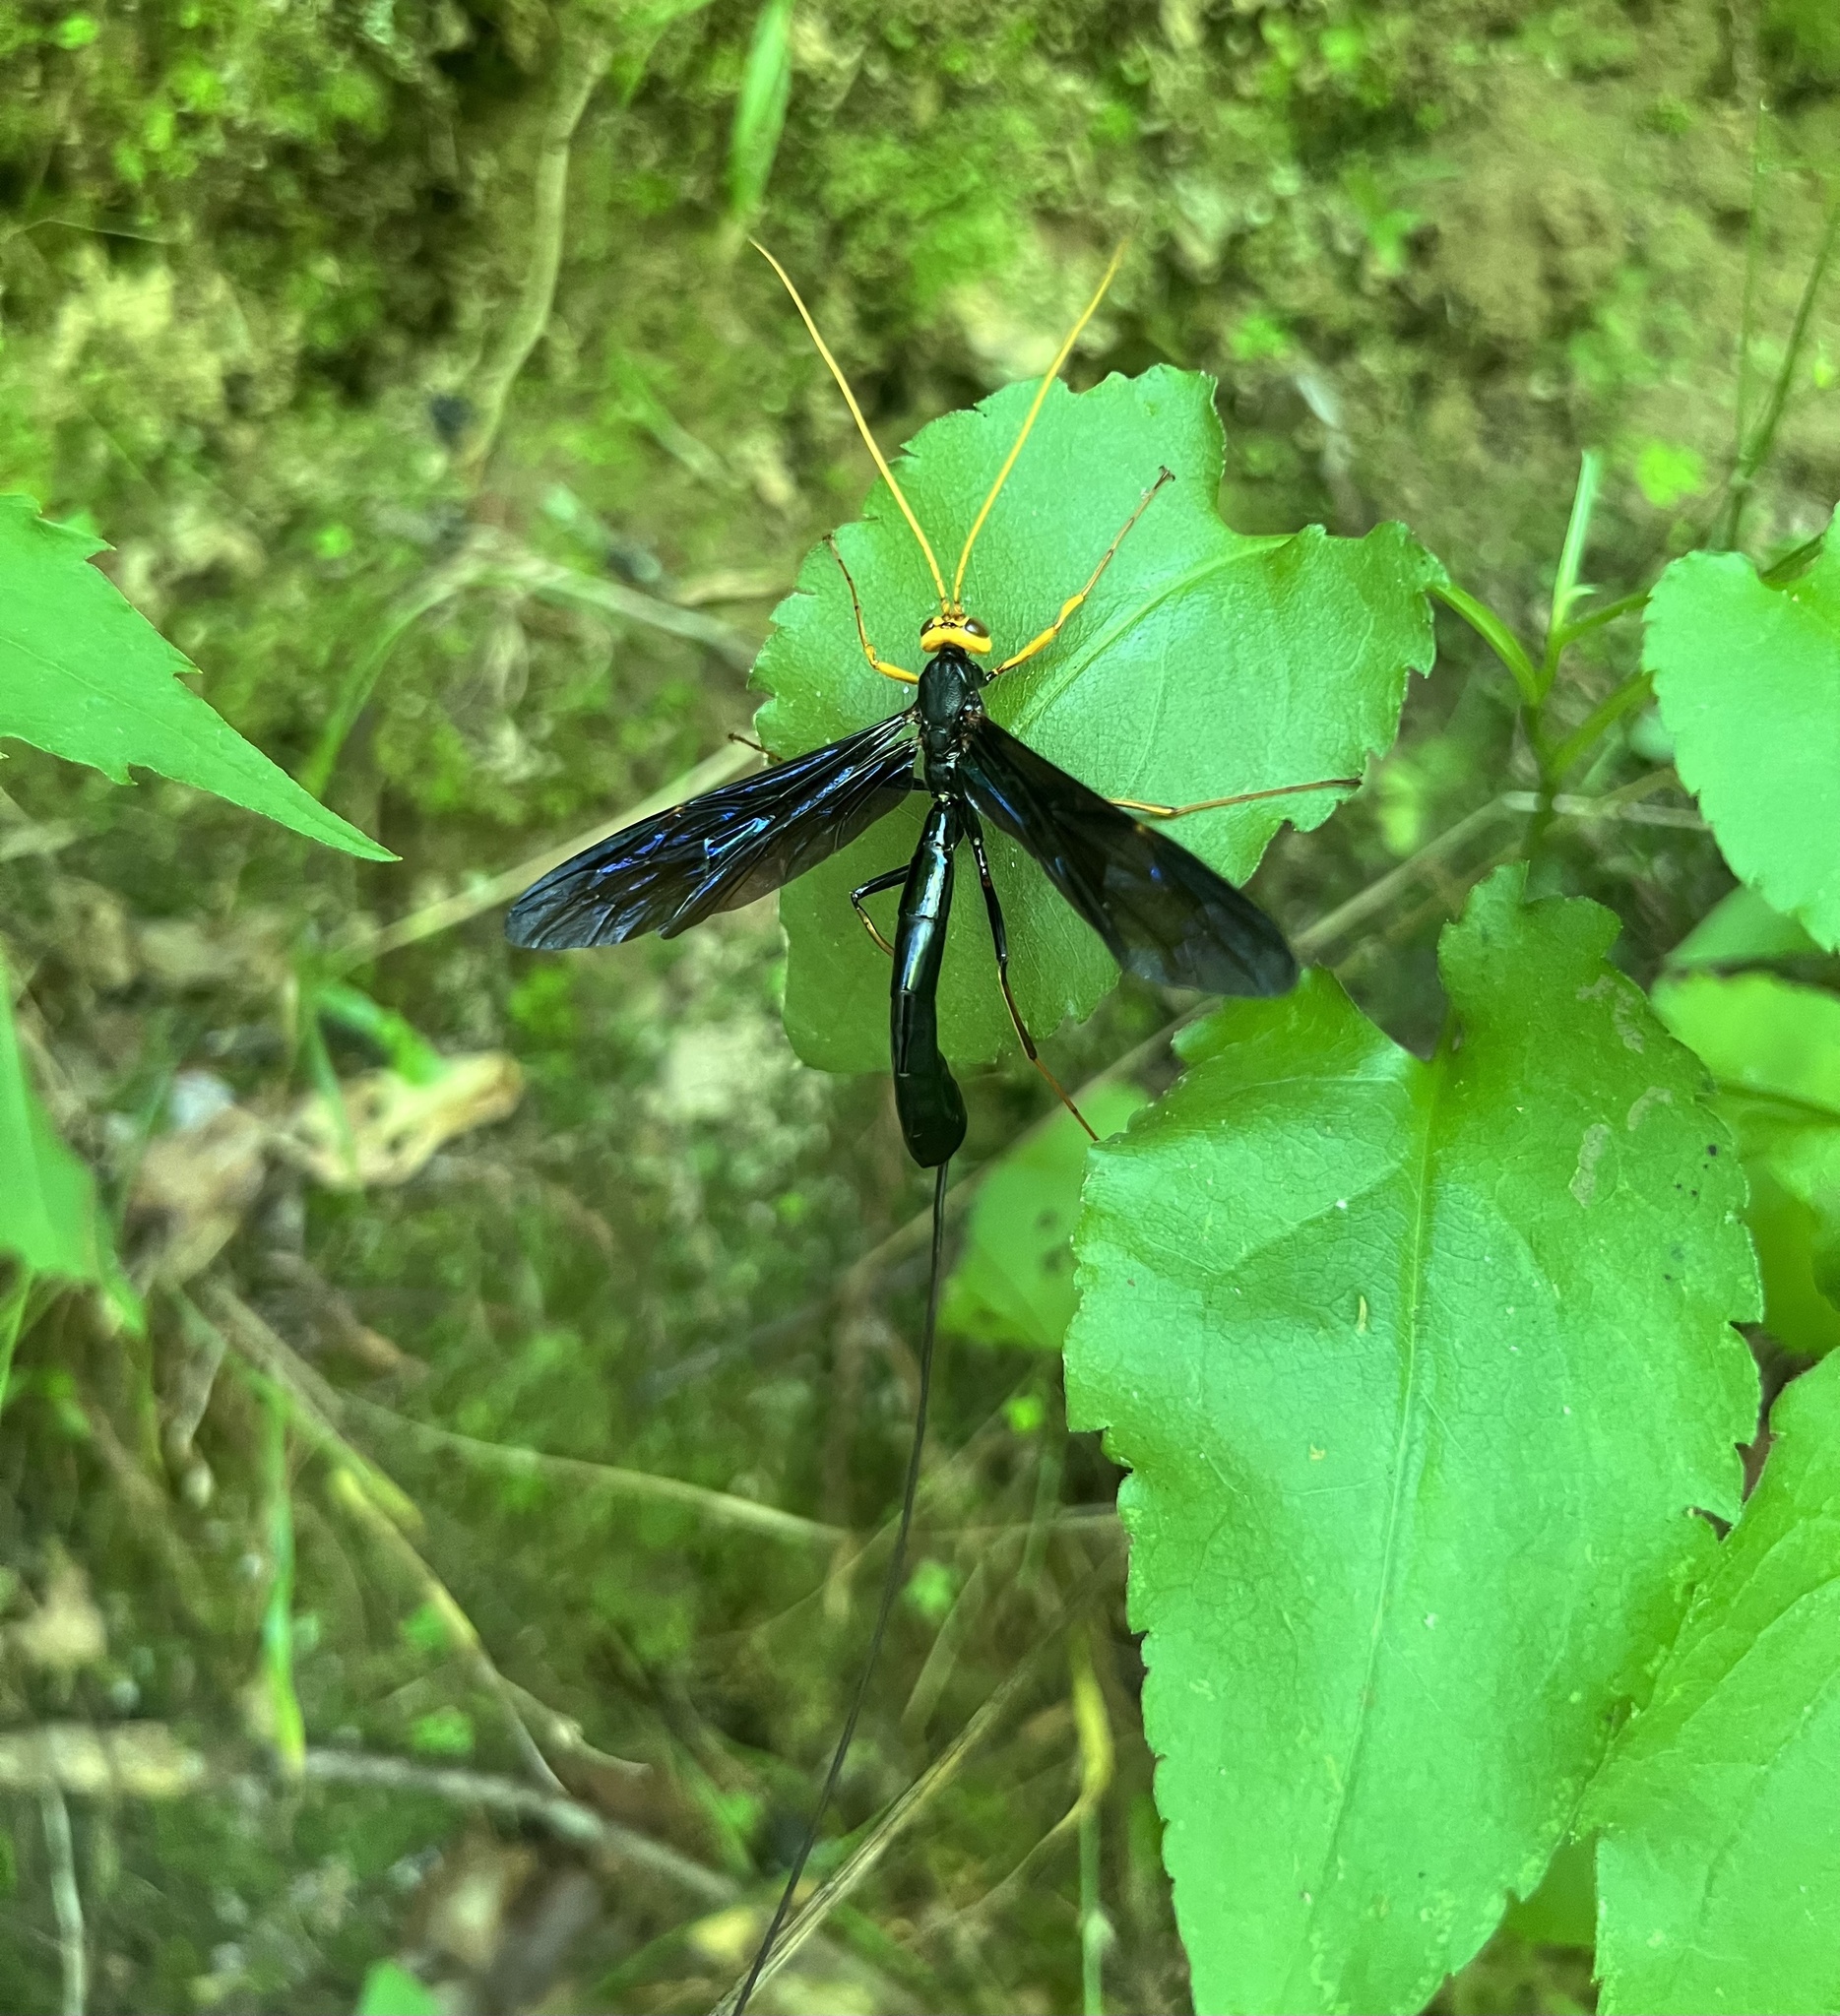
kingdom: Animalia
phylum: Arthropoda
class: Insecta
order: Hymenoptera
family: Ichneumonidae
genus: Megarhyssa
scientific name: Megarhyssa atrata
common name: Black giant ichneumonid wasp
